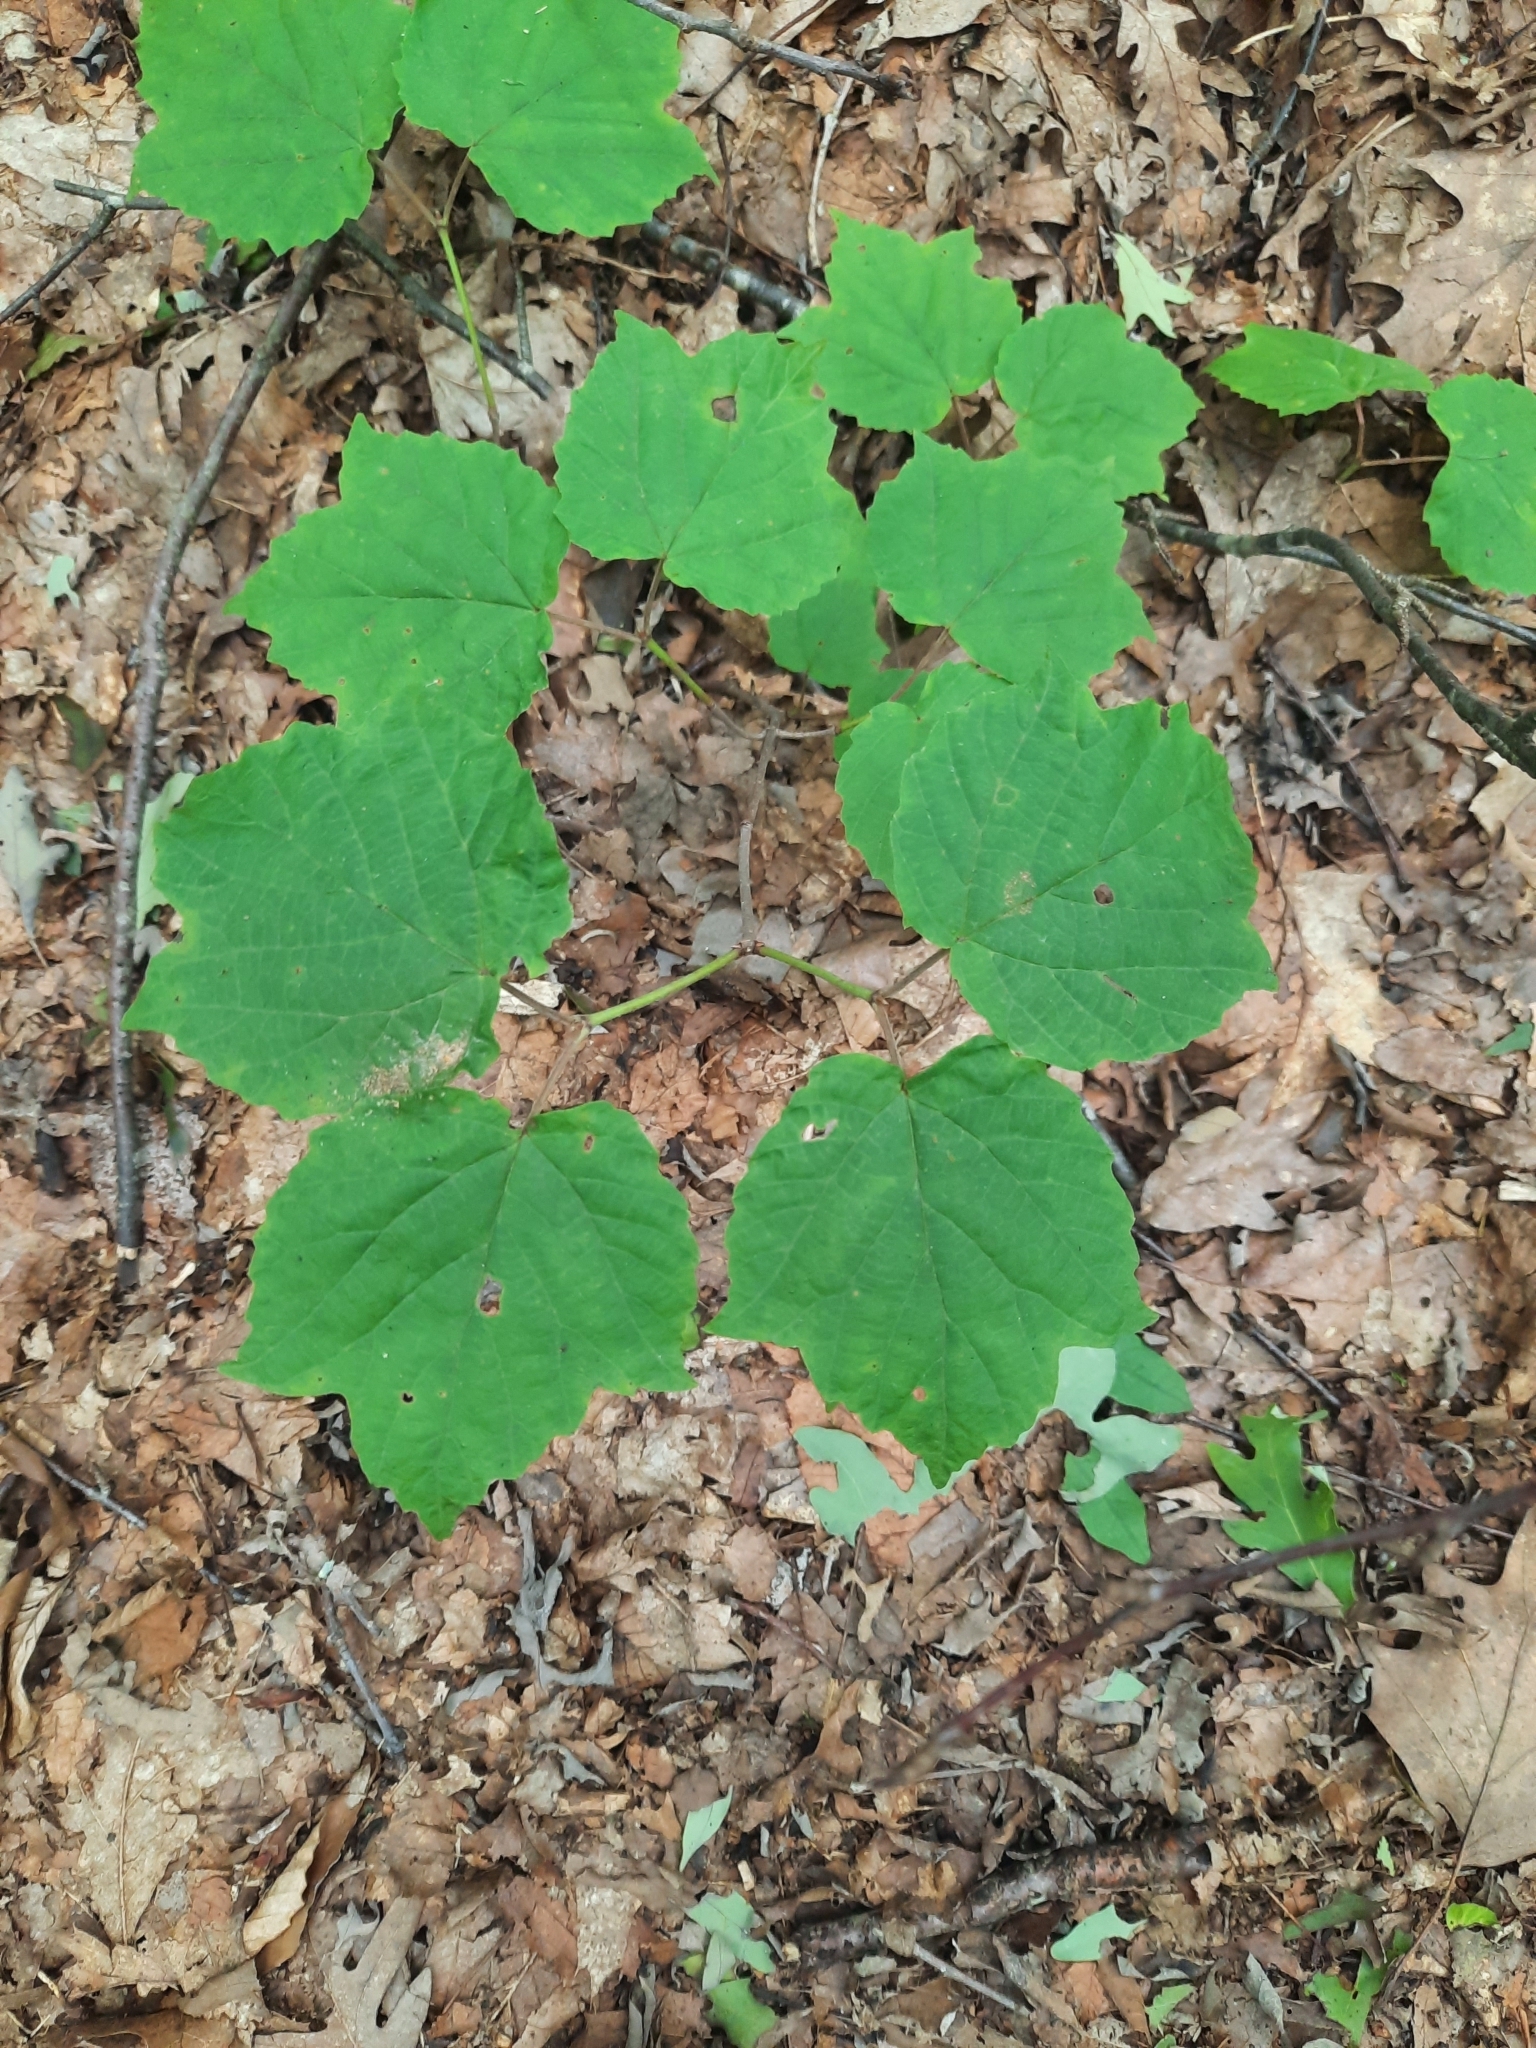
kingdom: Plantae
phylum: Tracheophyta
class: Magnoliopsida
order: Dipsacales
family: Viburnaceae
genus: Viburnum
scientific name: Viburnum acerifolium
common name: Dockmackie
